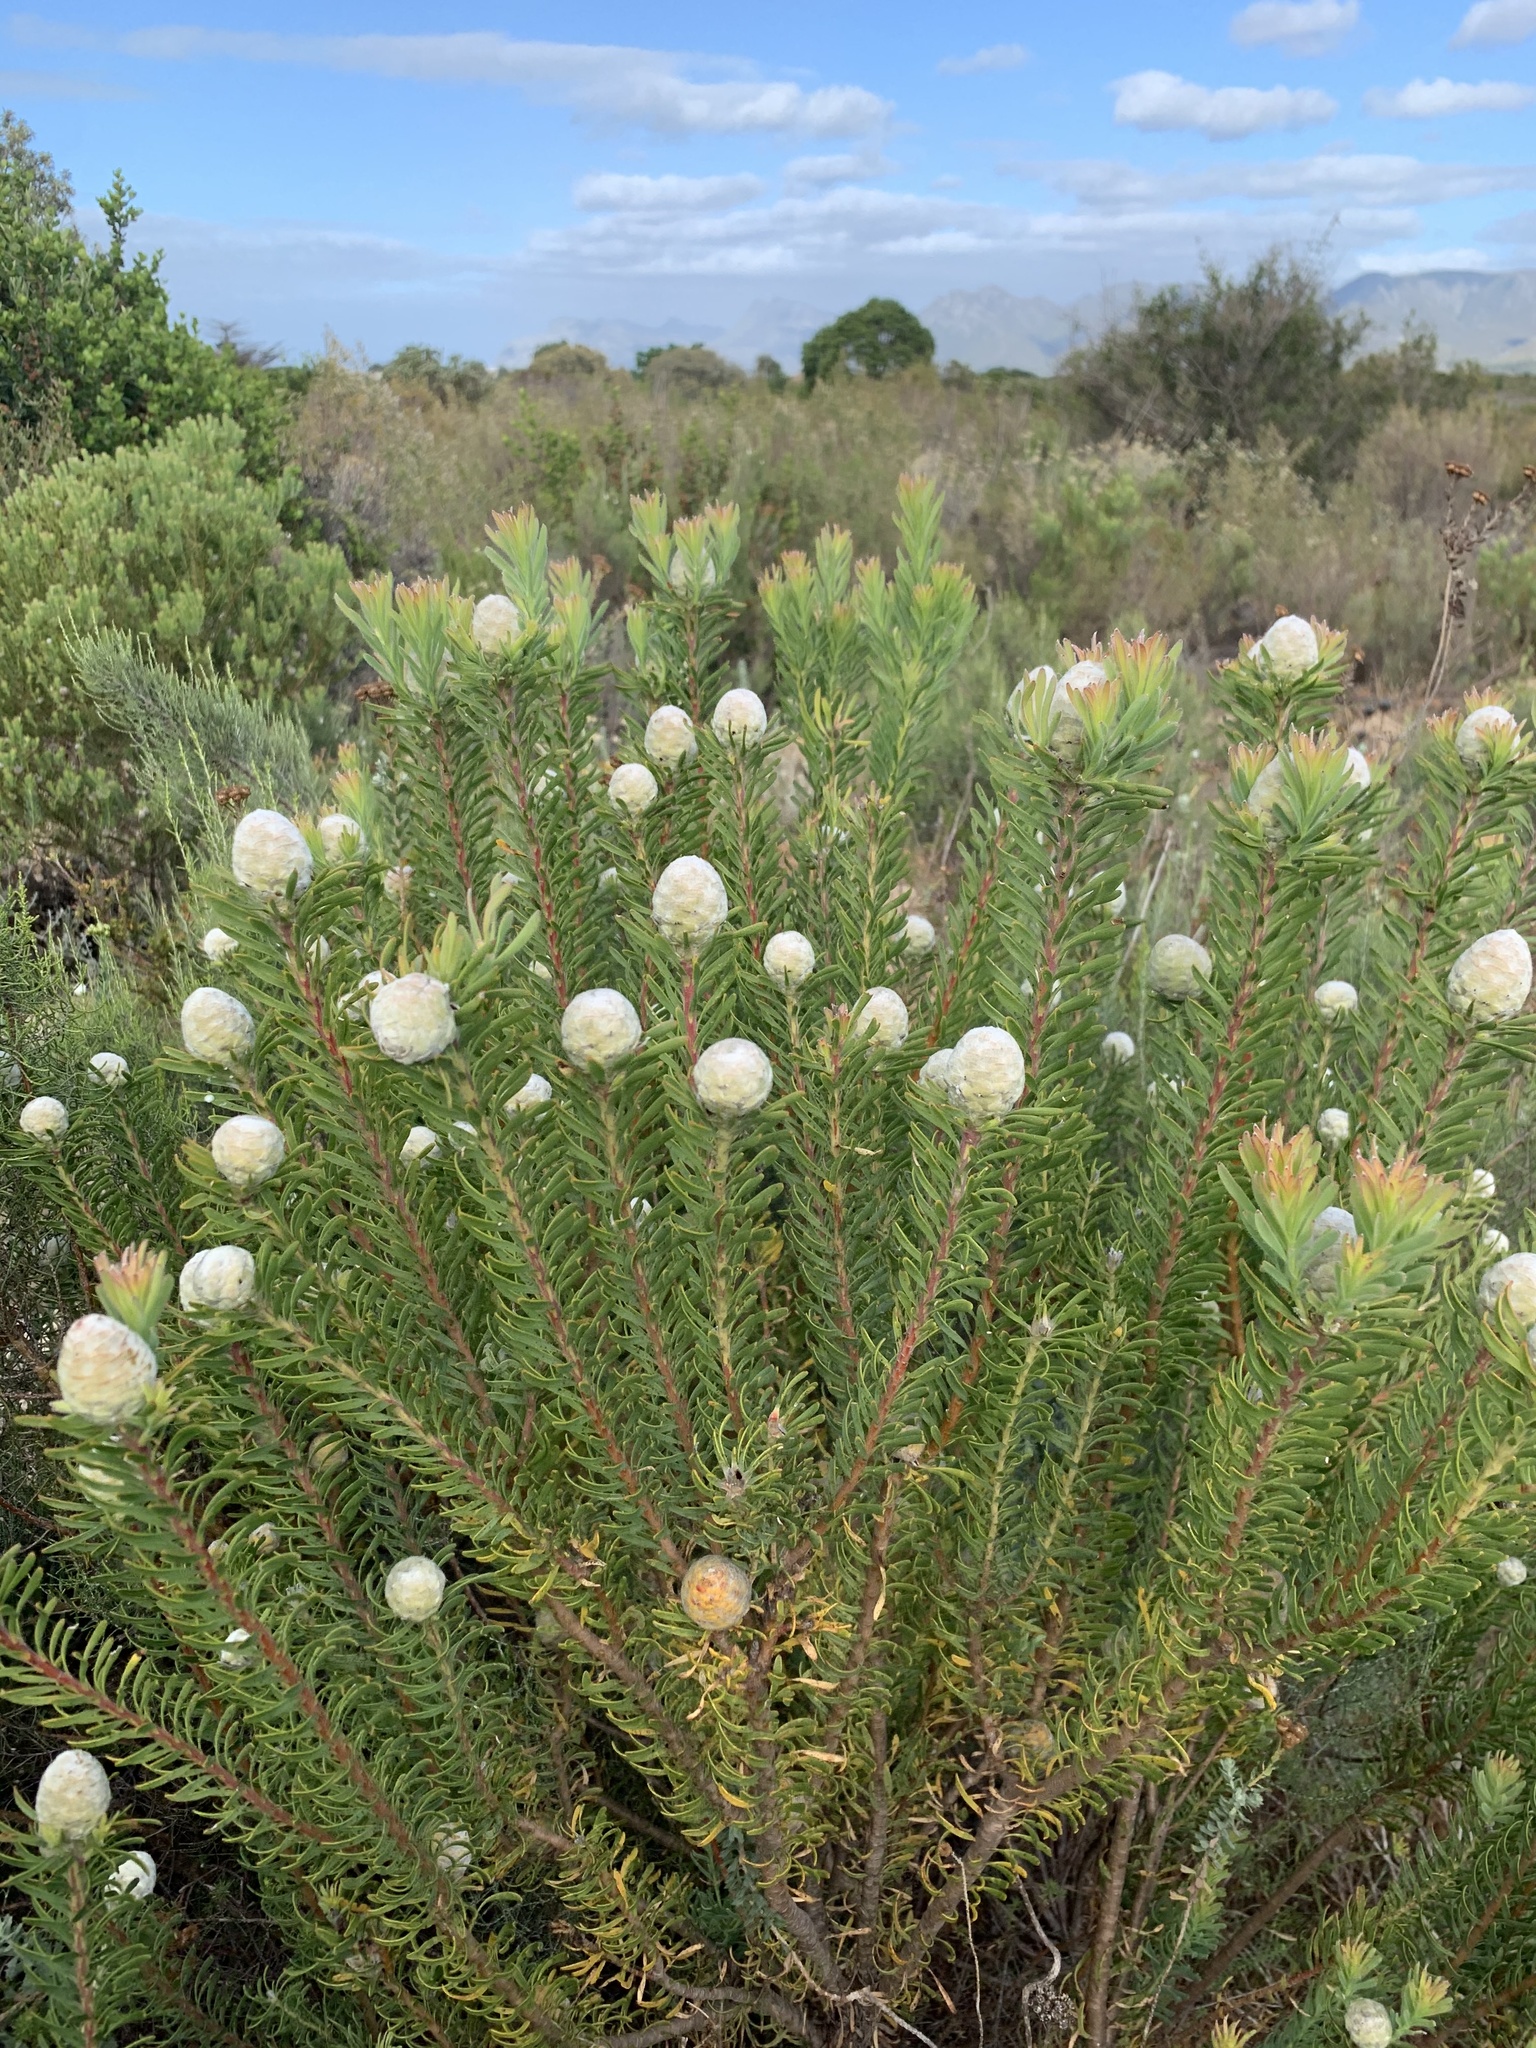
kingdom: Plantae
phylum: Tracheophyta
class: Magnoliopsida
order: Proteales
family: Proteaceae
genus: Leucadendron
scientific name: Leucadendron linifolium
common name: Line-leaf conebush
